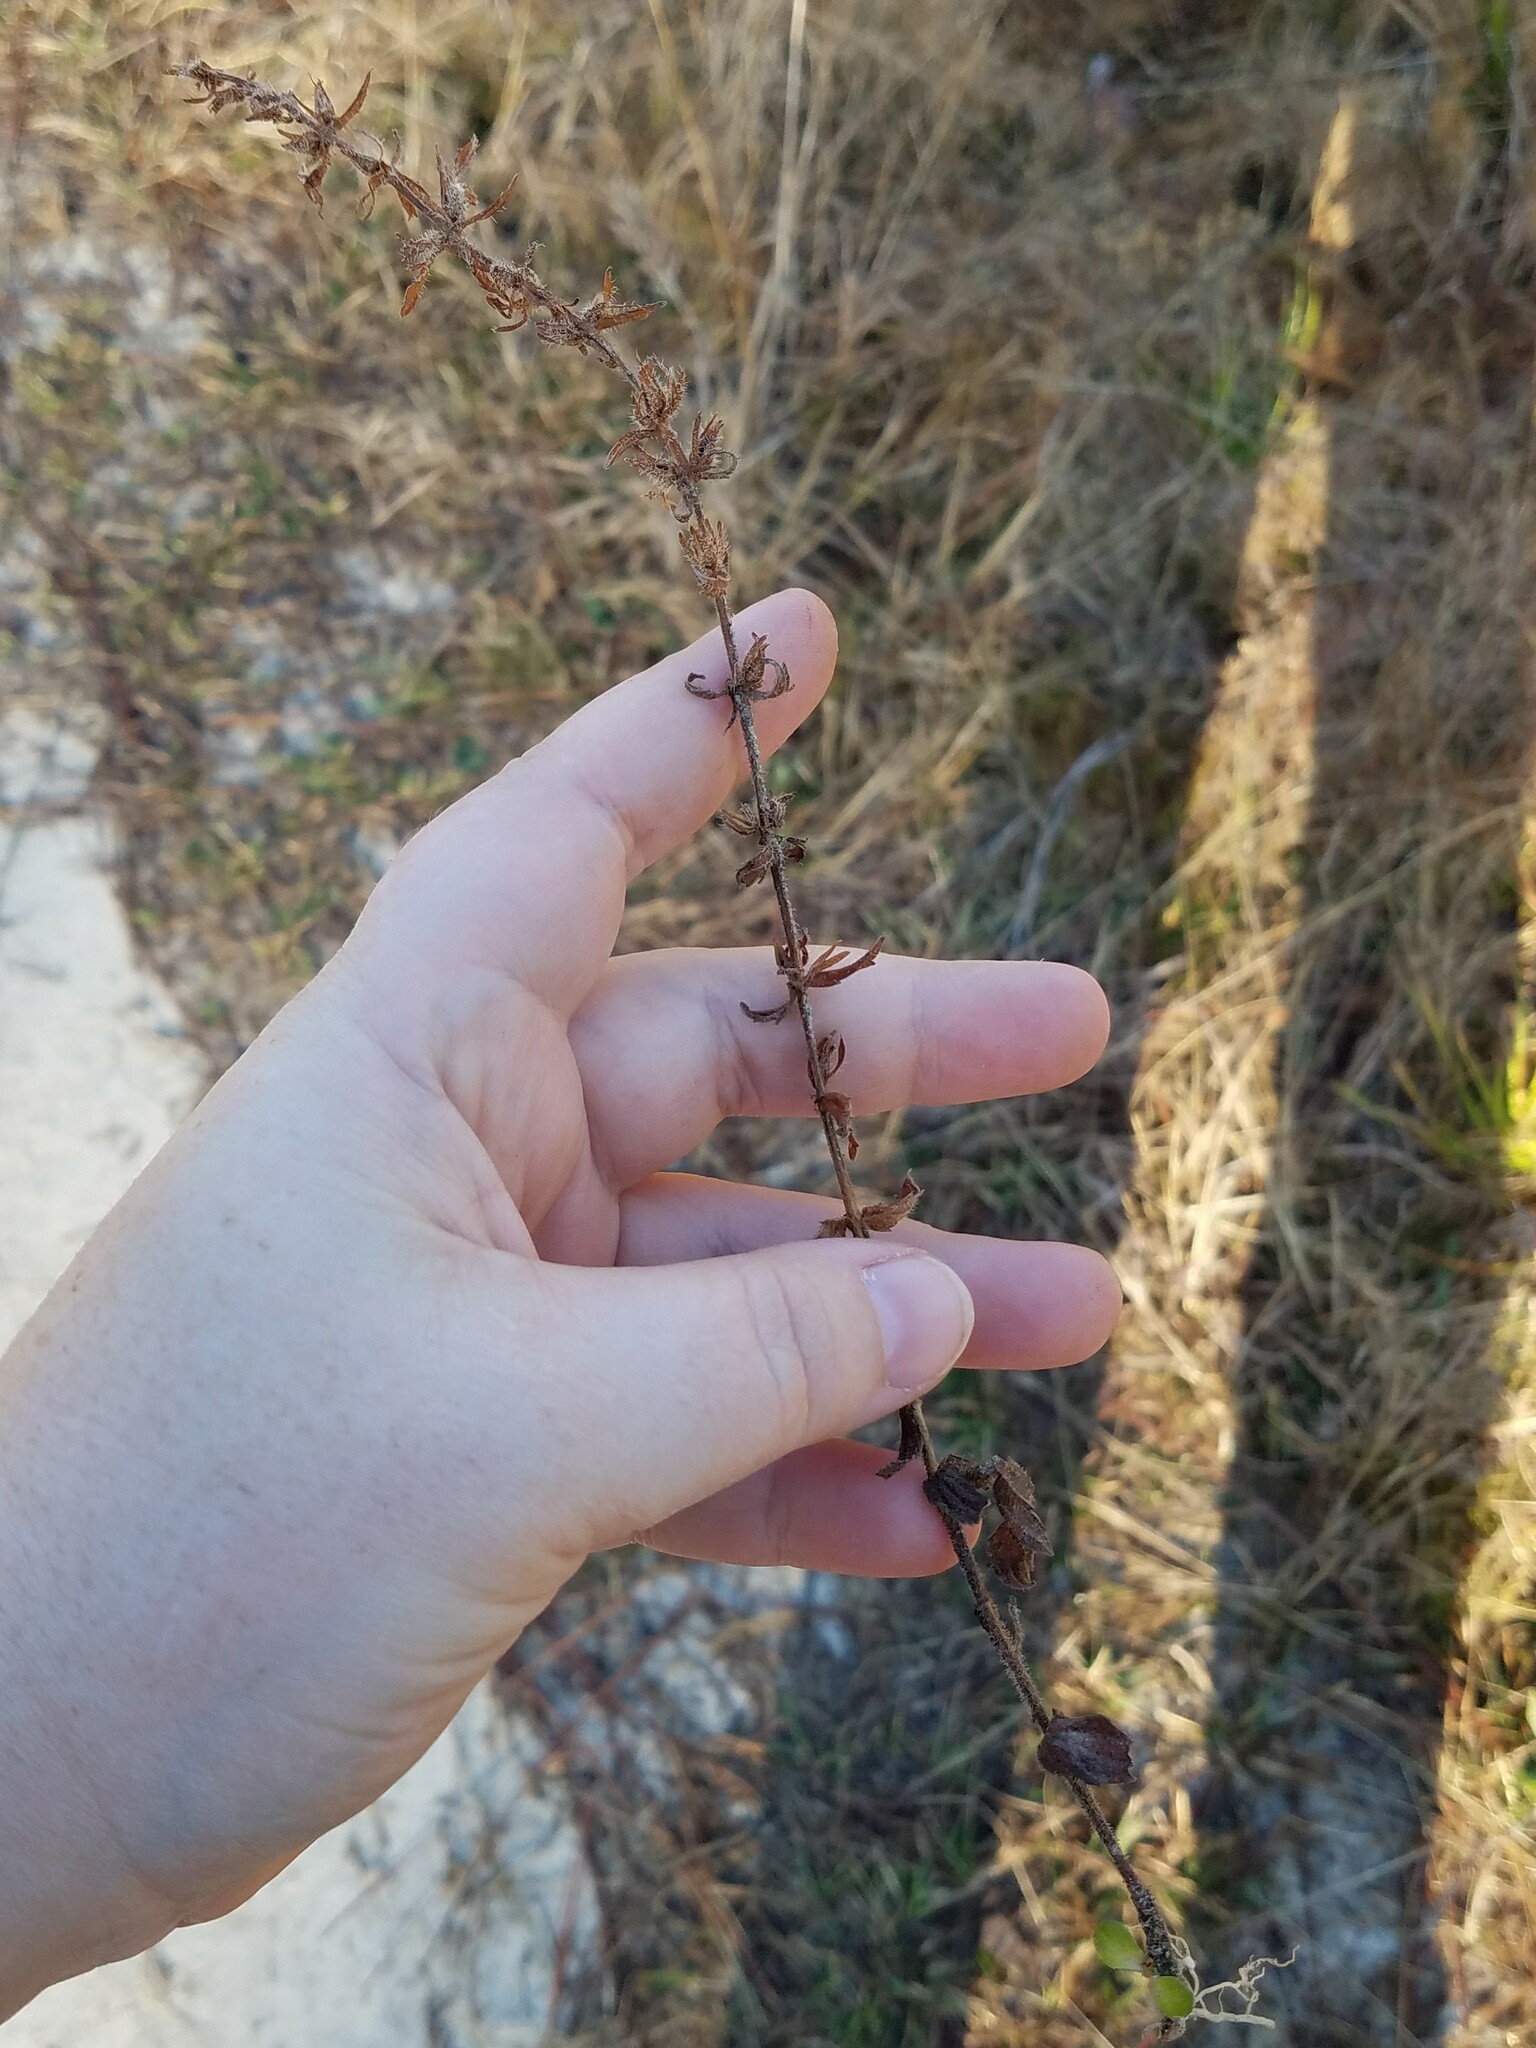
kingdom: Plantae
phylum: Tracheophyta
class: Magnoliopsida
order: Lamiales
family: Plantaginaceae
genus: Gratiola
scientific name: Gratiola pilosa
